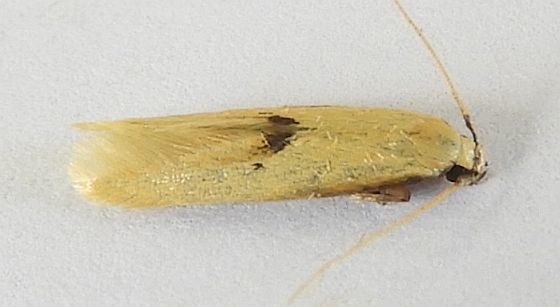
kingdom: Animalia
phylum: Arthropoda
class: Insecta
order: Lepidoptera
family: Tineidae
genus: Opogona
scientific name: Opogona arizonensis
